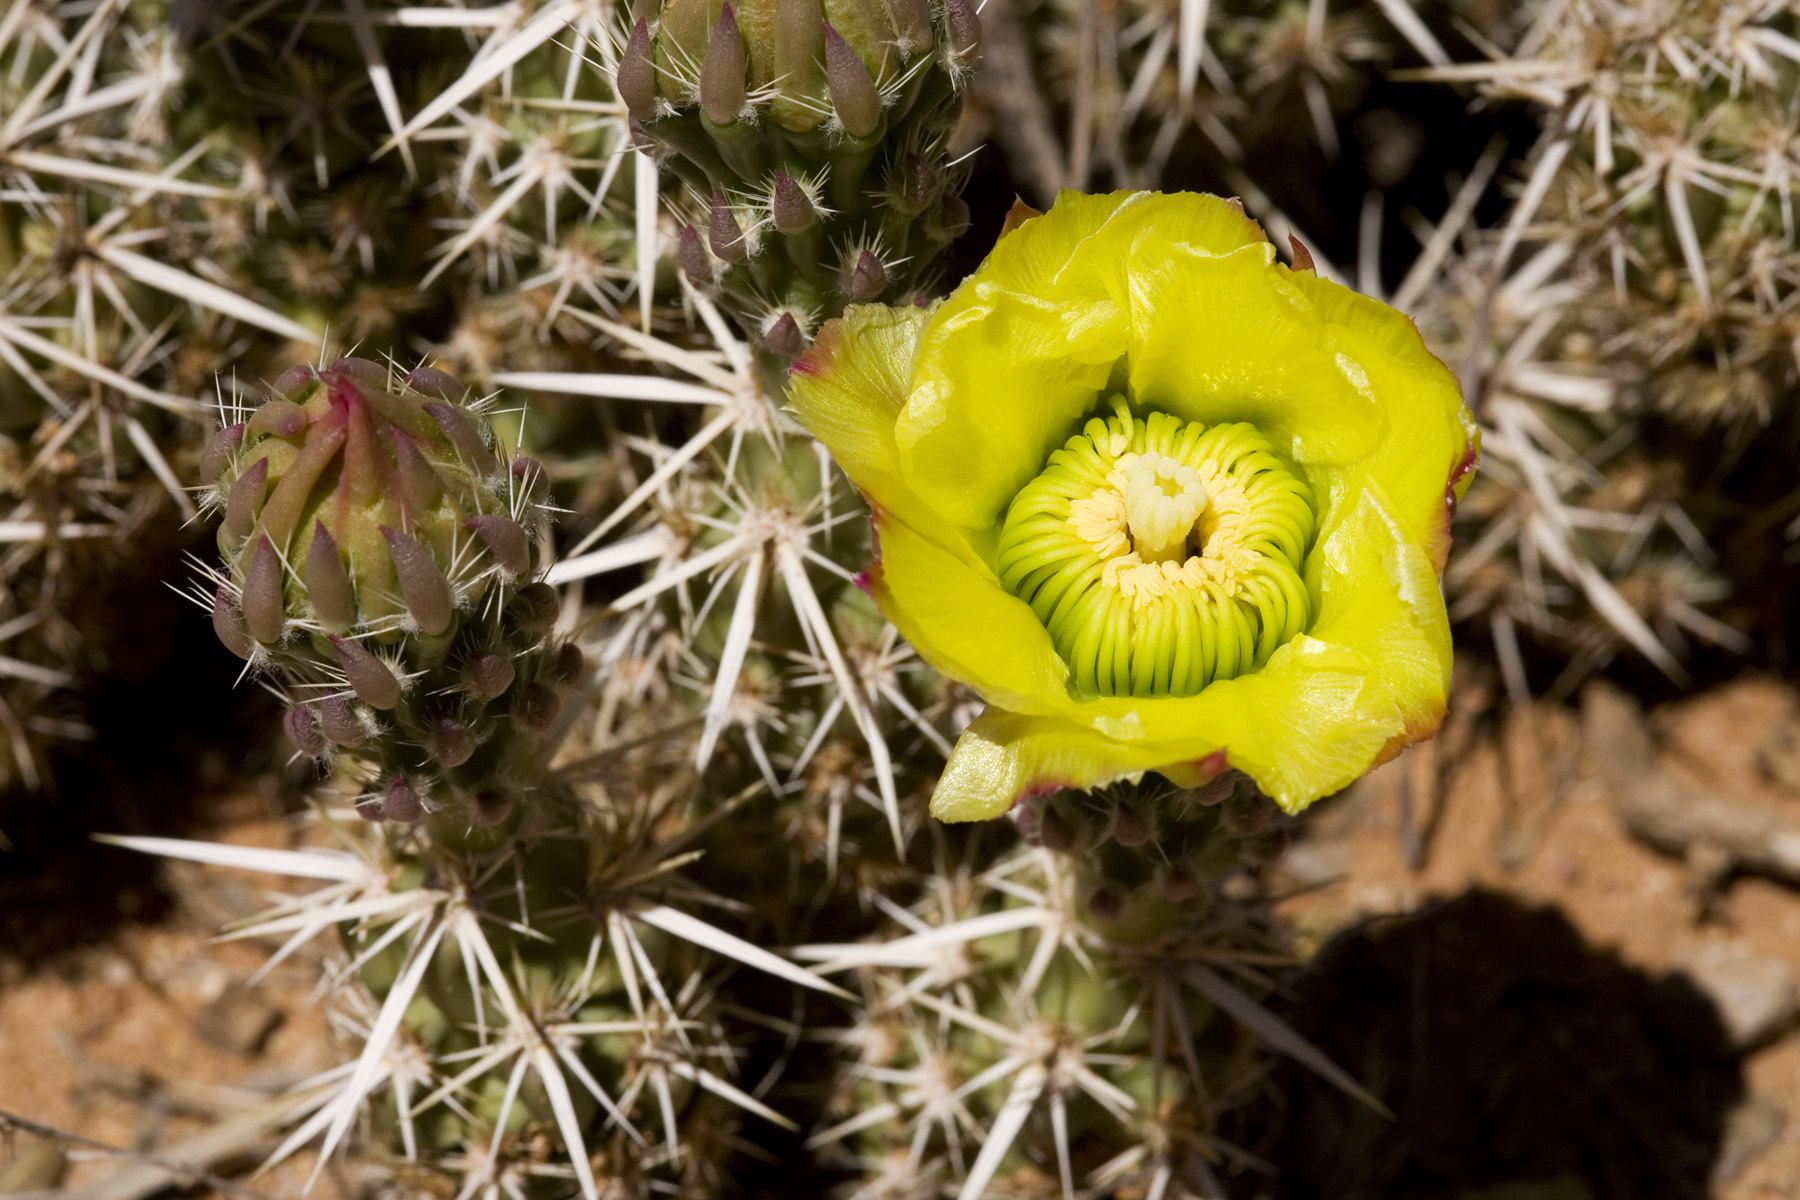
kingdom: Plantae
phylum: Tracheophyta
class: Magnoliopsida
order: Caryophyllales
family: Cactaceae
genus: Grusonia
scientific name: Grusonia clavata
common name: Club cholla
